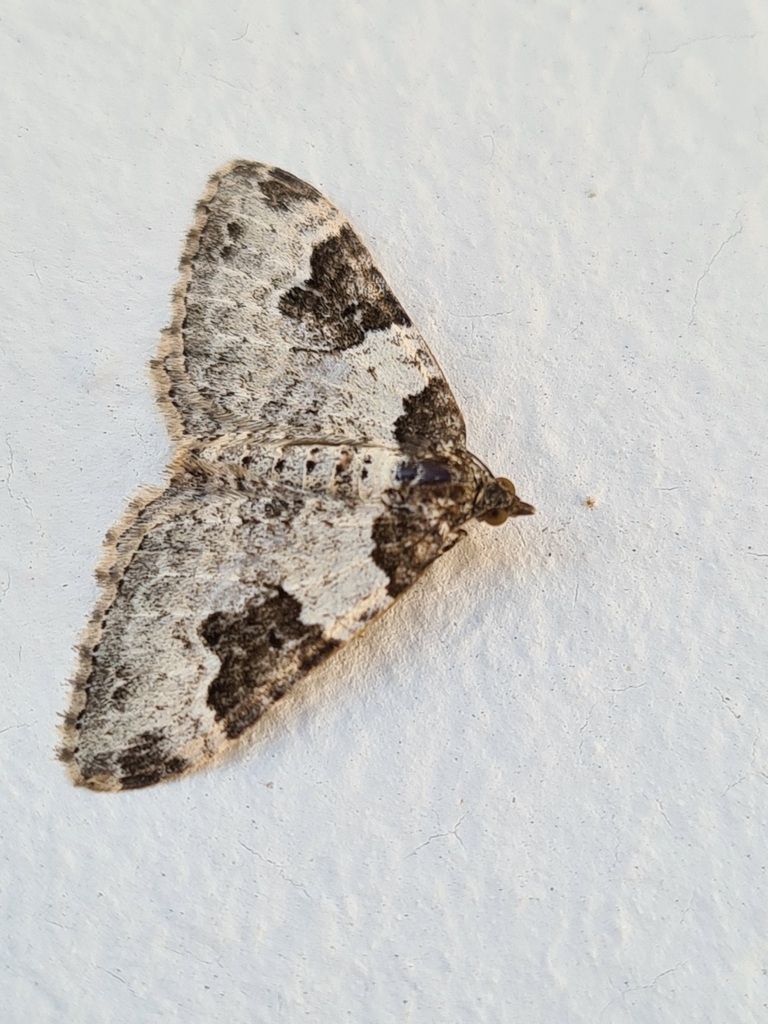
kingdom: Animalia
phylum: Arthropoda
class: Insecta
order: Lepidoptera
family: Geometridae
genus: Xanthorhoe
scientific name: Xanthorhoe fluctuata
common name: Garden carpet
